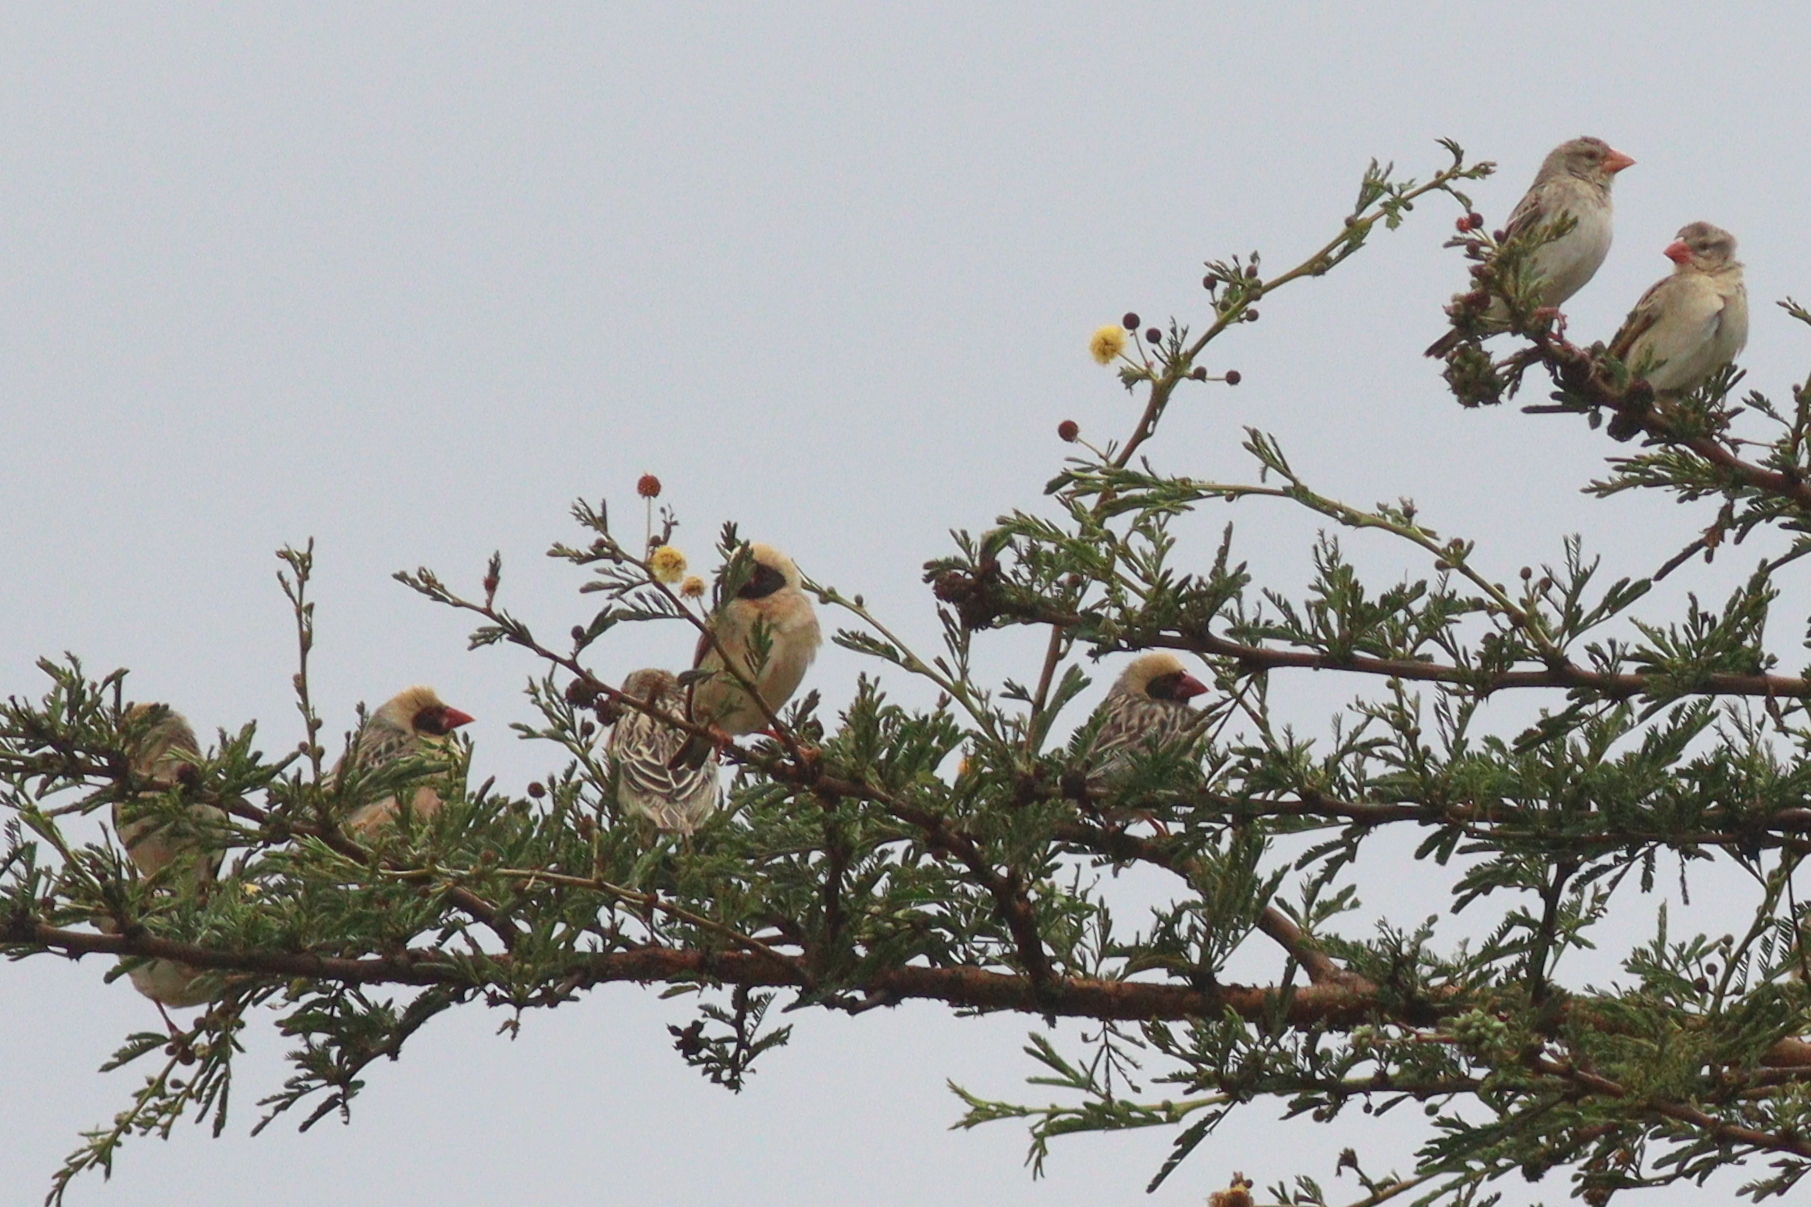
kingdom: Animalia
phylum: Chordata
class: Aves
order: Passeriformes
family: Ploceidae
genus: Quelea
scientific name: Quelea quelea
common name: Red-billed quelea
